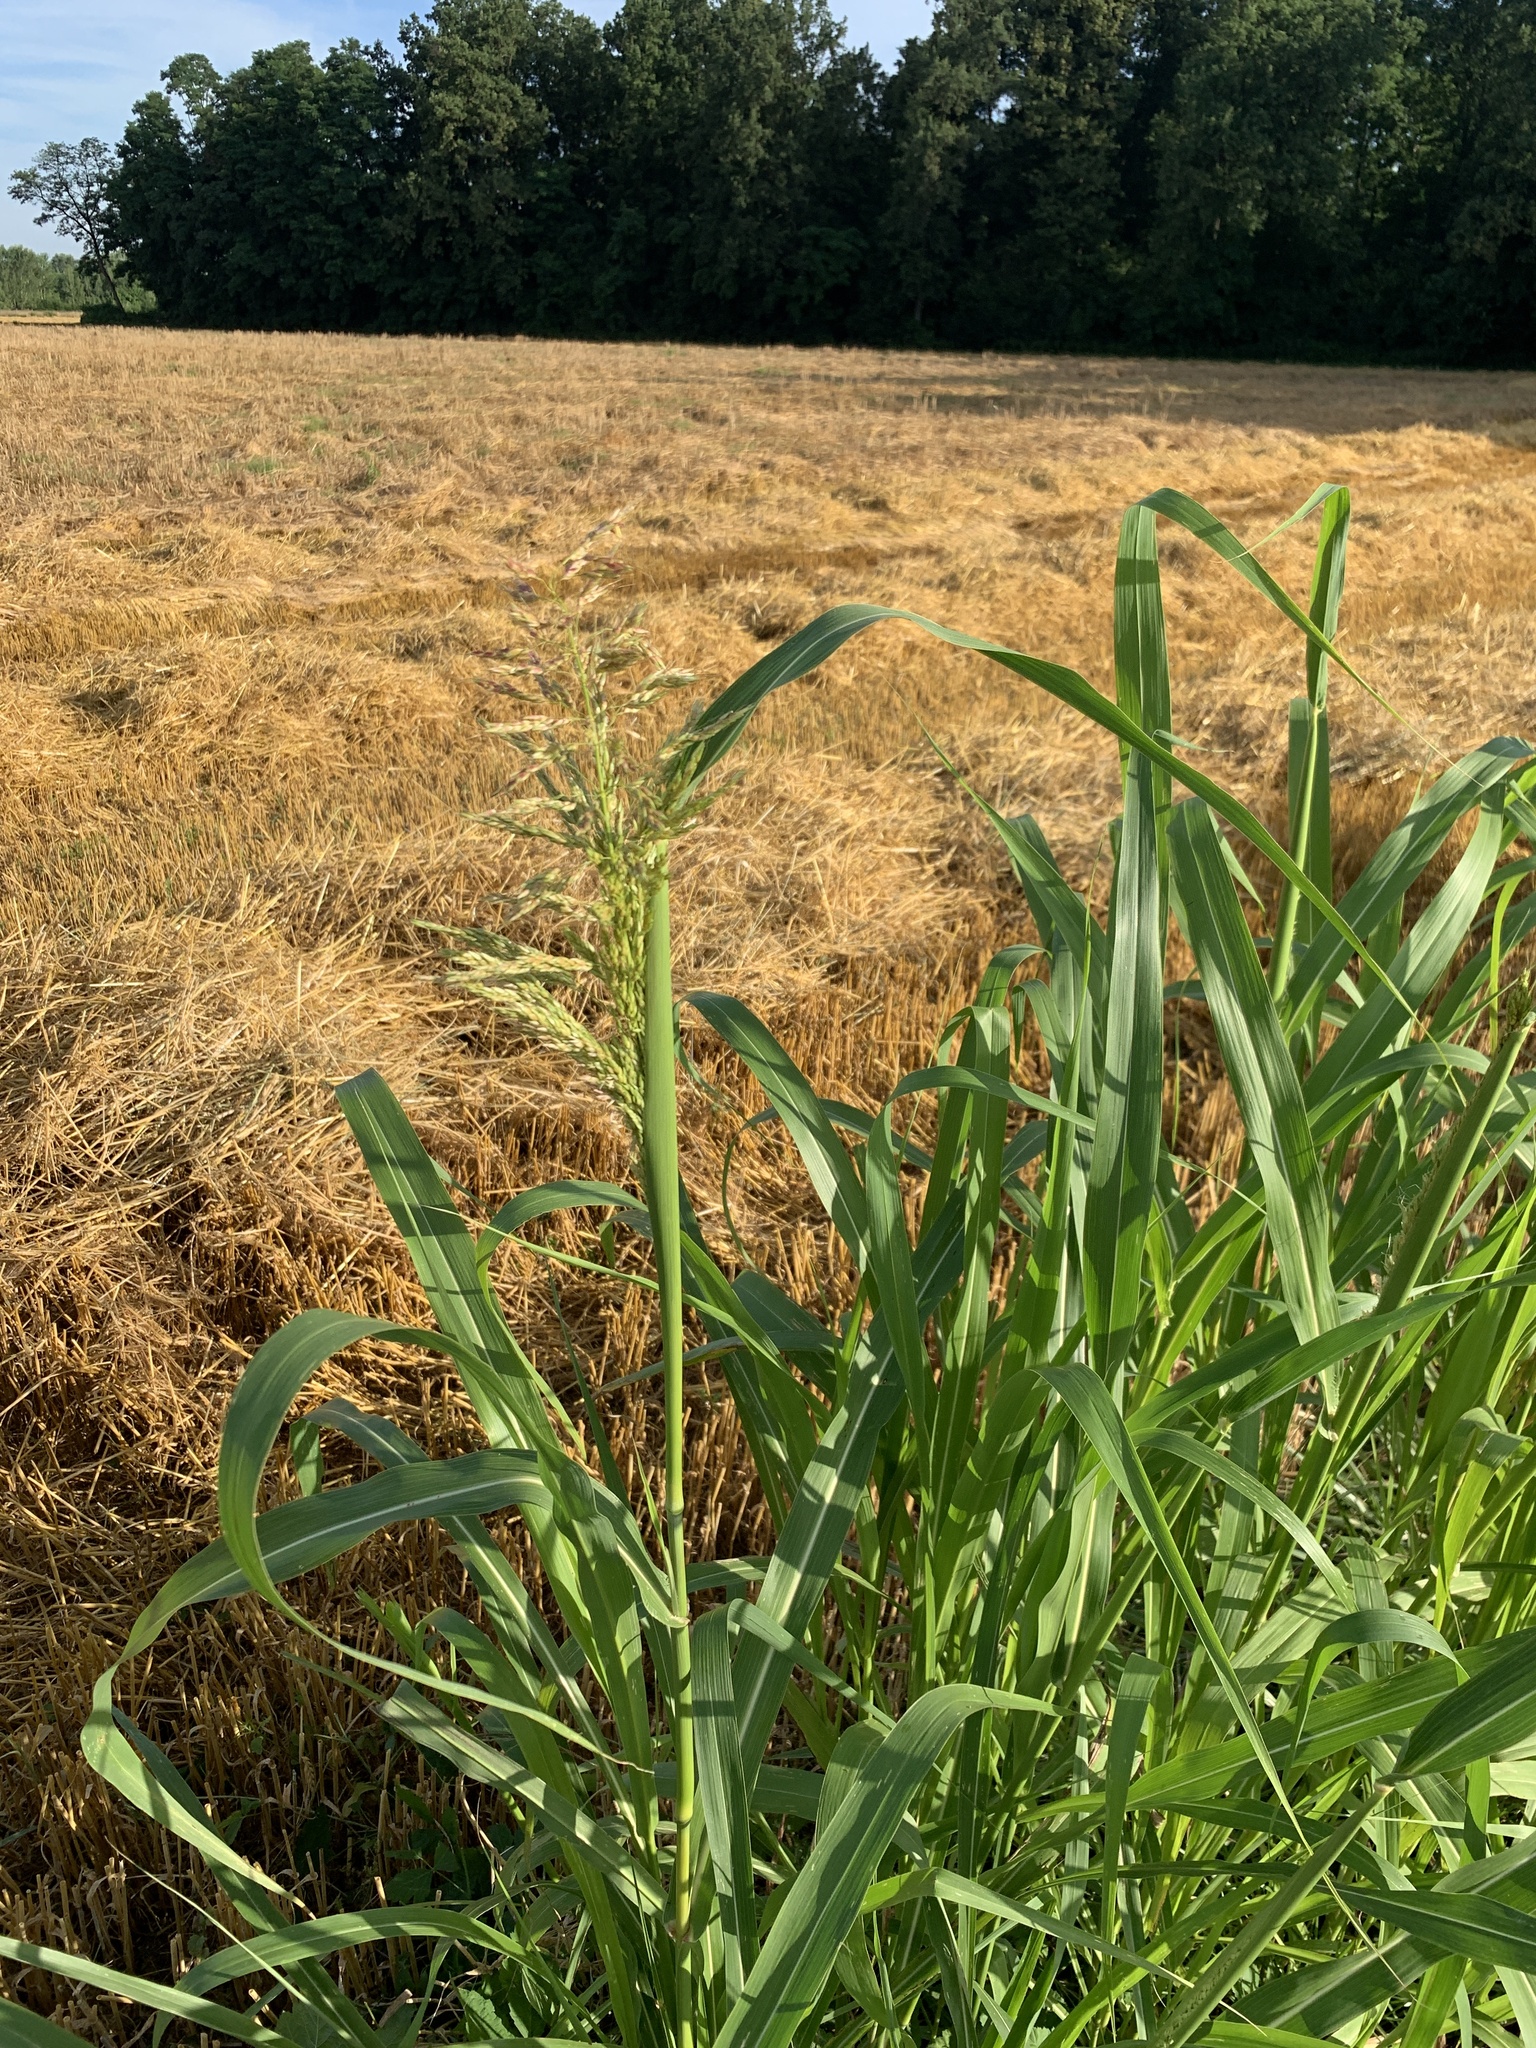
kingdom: Plantae
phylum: Tracheophyta
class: Liliopsida
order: Poales
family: Poaceae
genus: Sorghum
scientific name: Sorghum halepense
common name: Johnson-grass
